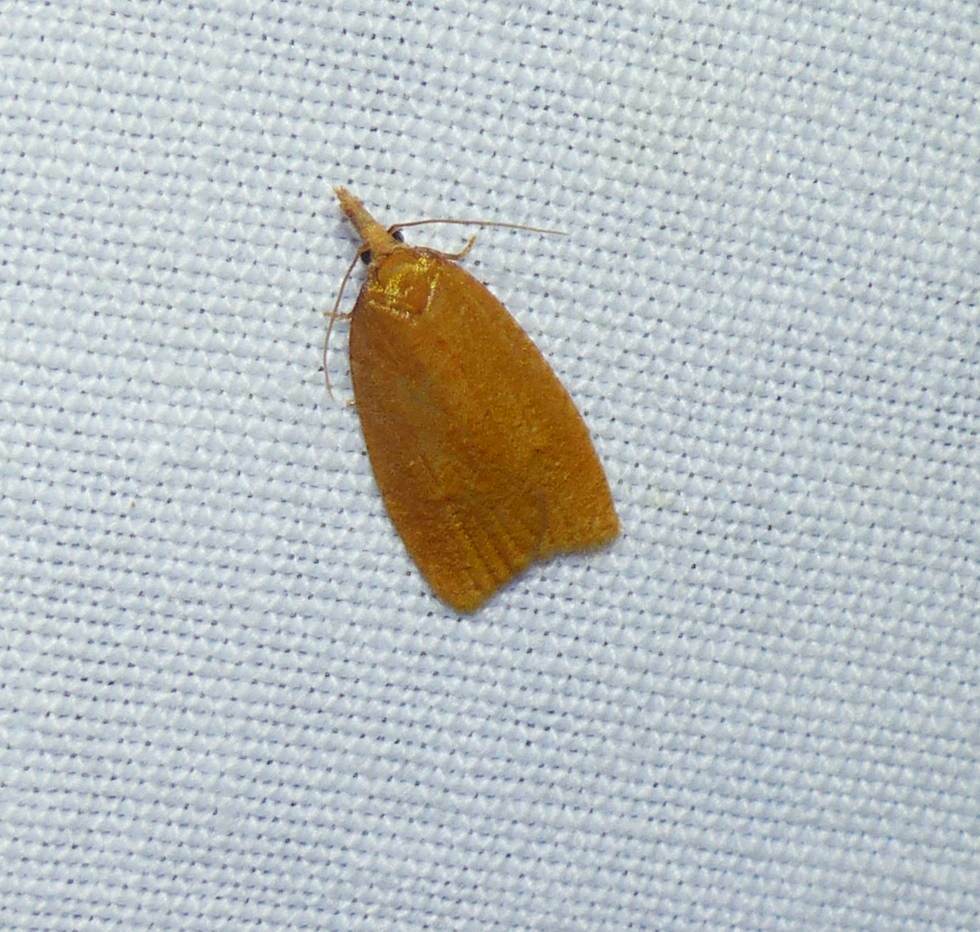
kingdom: Animalia
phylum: Arthropoda
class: Insecta
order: Lepidoptera
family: Tortricidae
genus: Cenopis
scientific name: Cenopis directana
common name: Chokecherry leafroller moth
